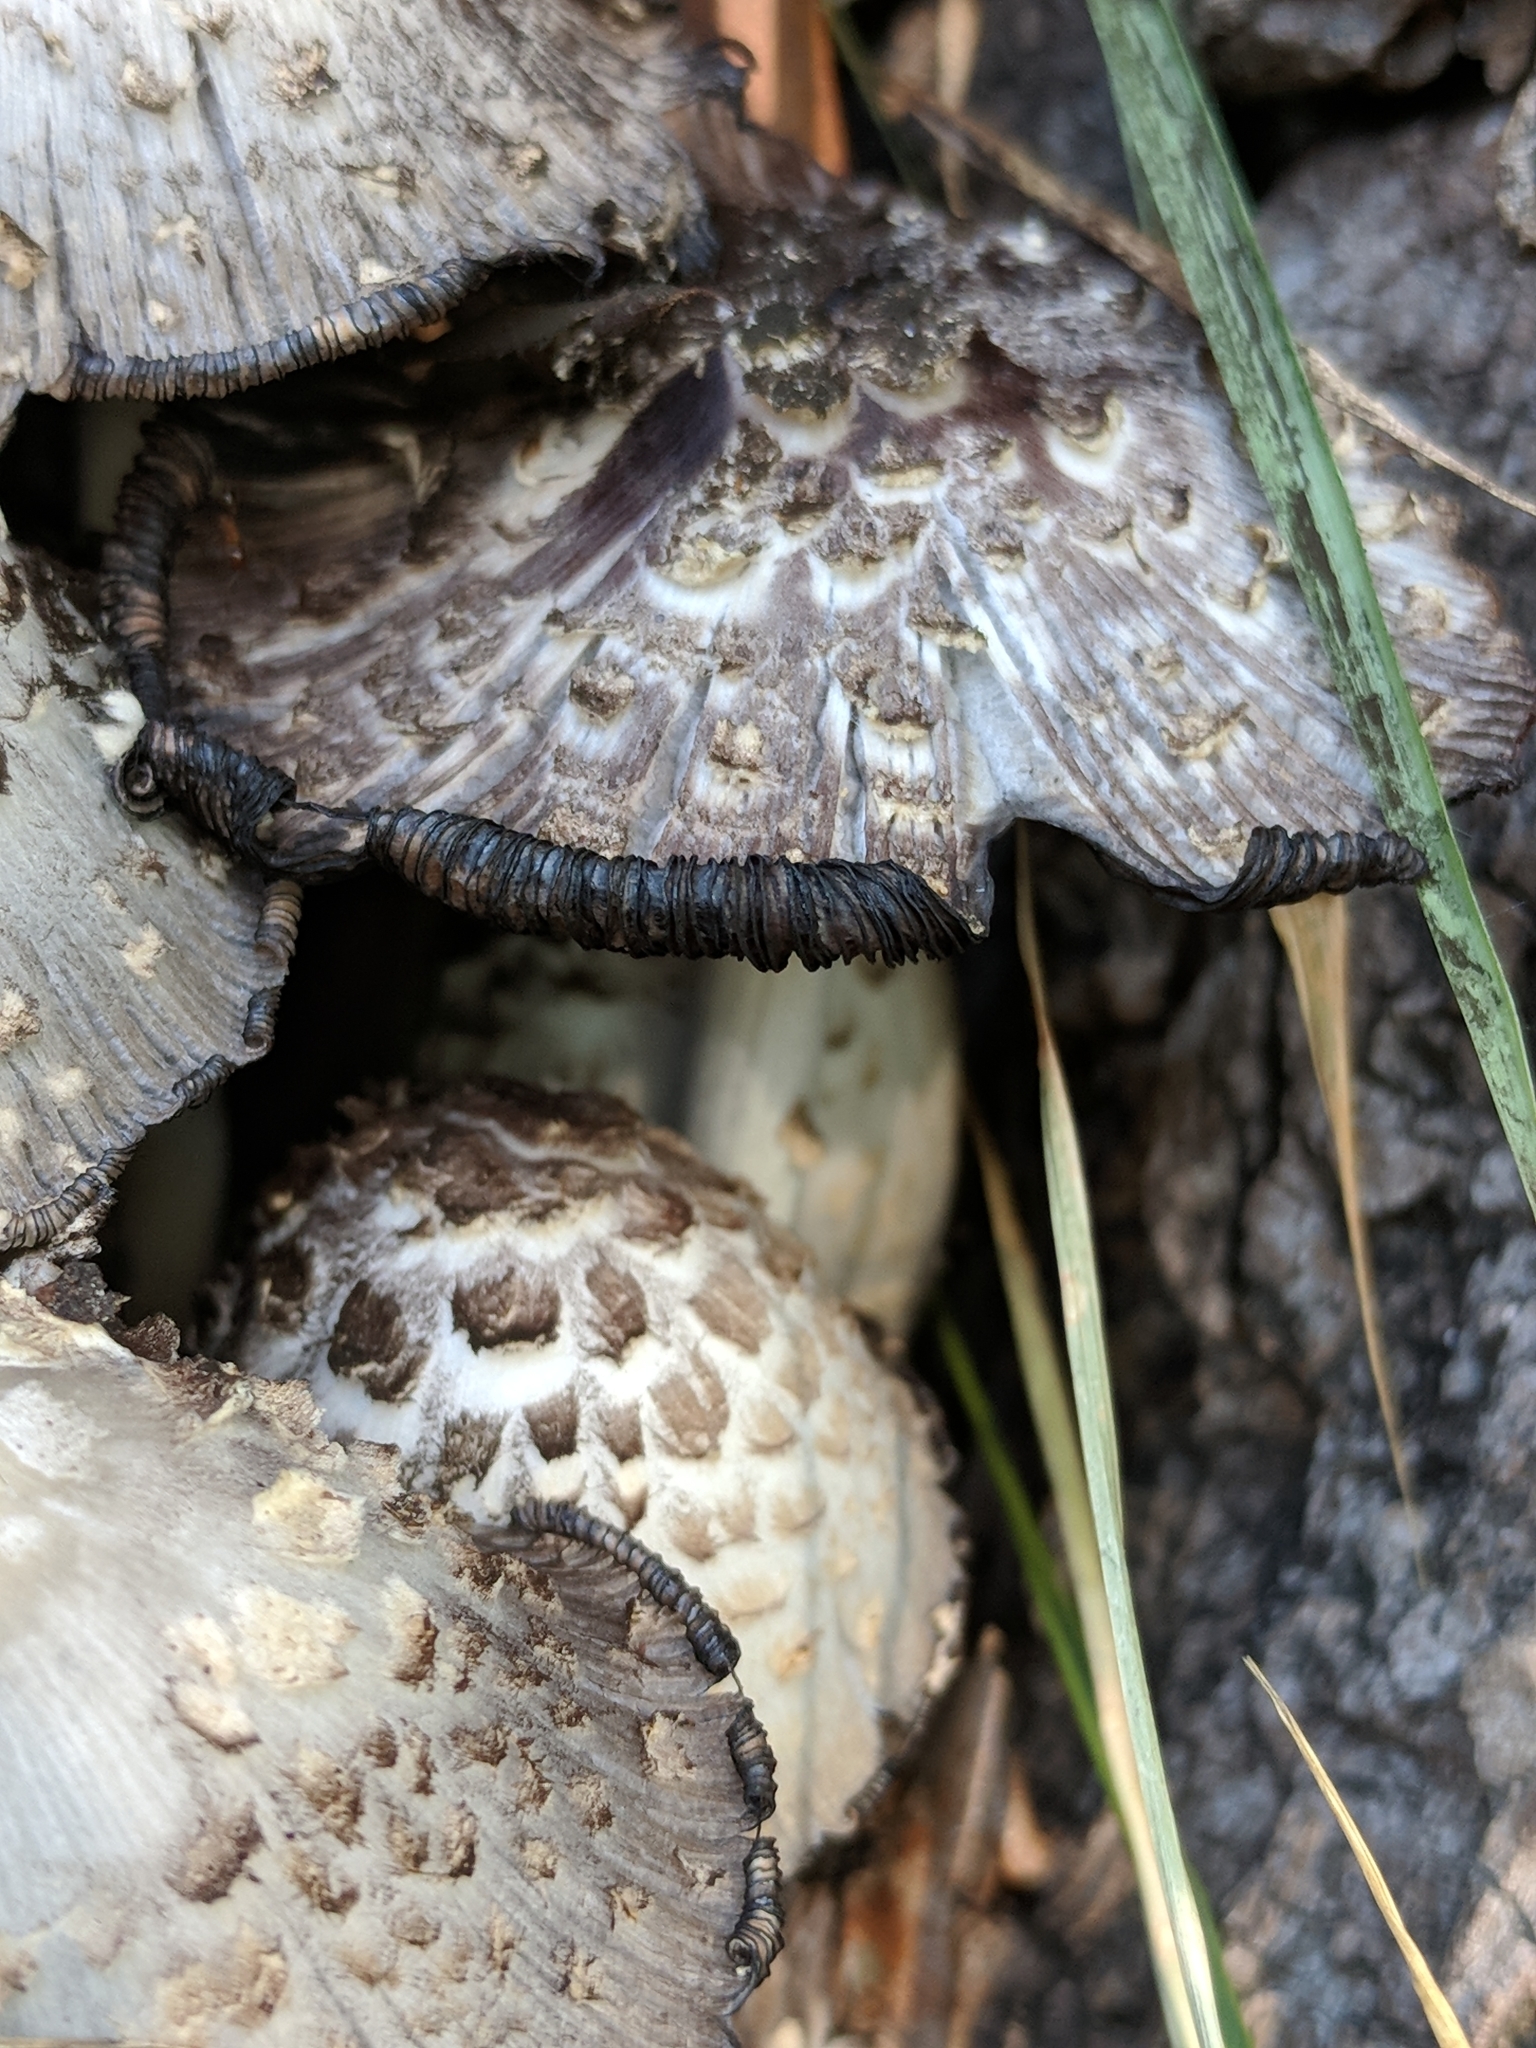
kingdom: Fungi
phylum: Basidiomycota
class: Agaricomycetes
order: Agaricales
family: Psathyrellaceae
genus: Coprinopsis
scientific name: Coprinopsis variegata
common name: Scaly ink cap
